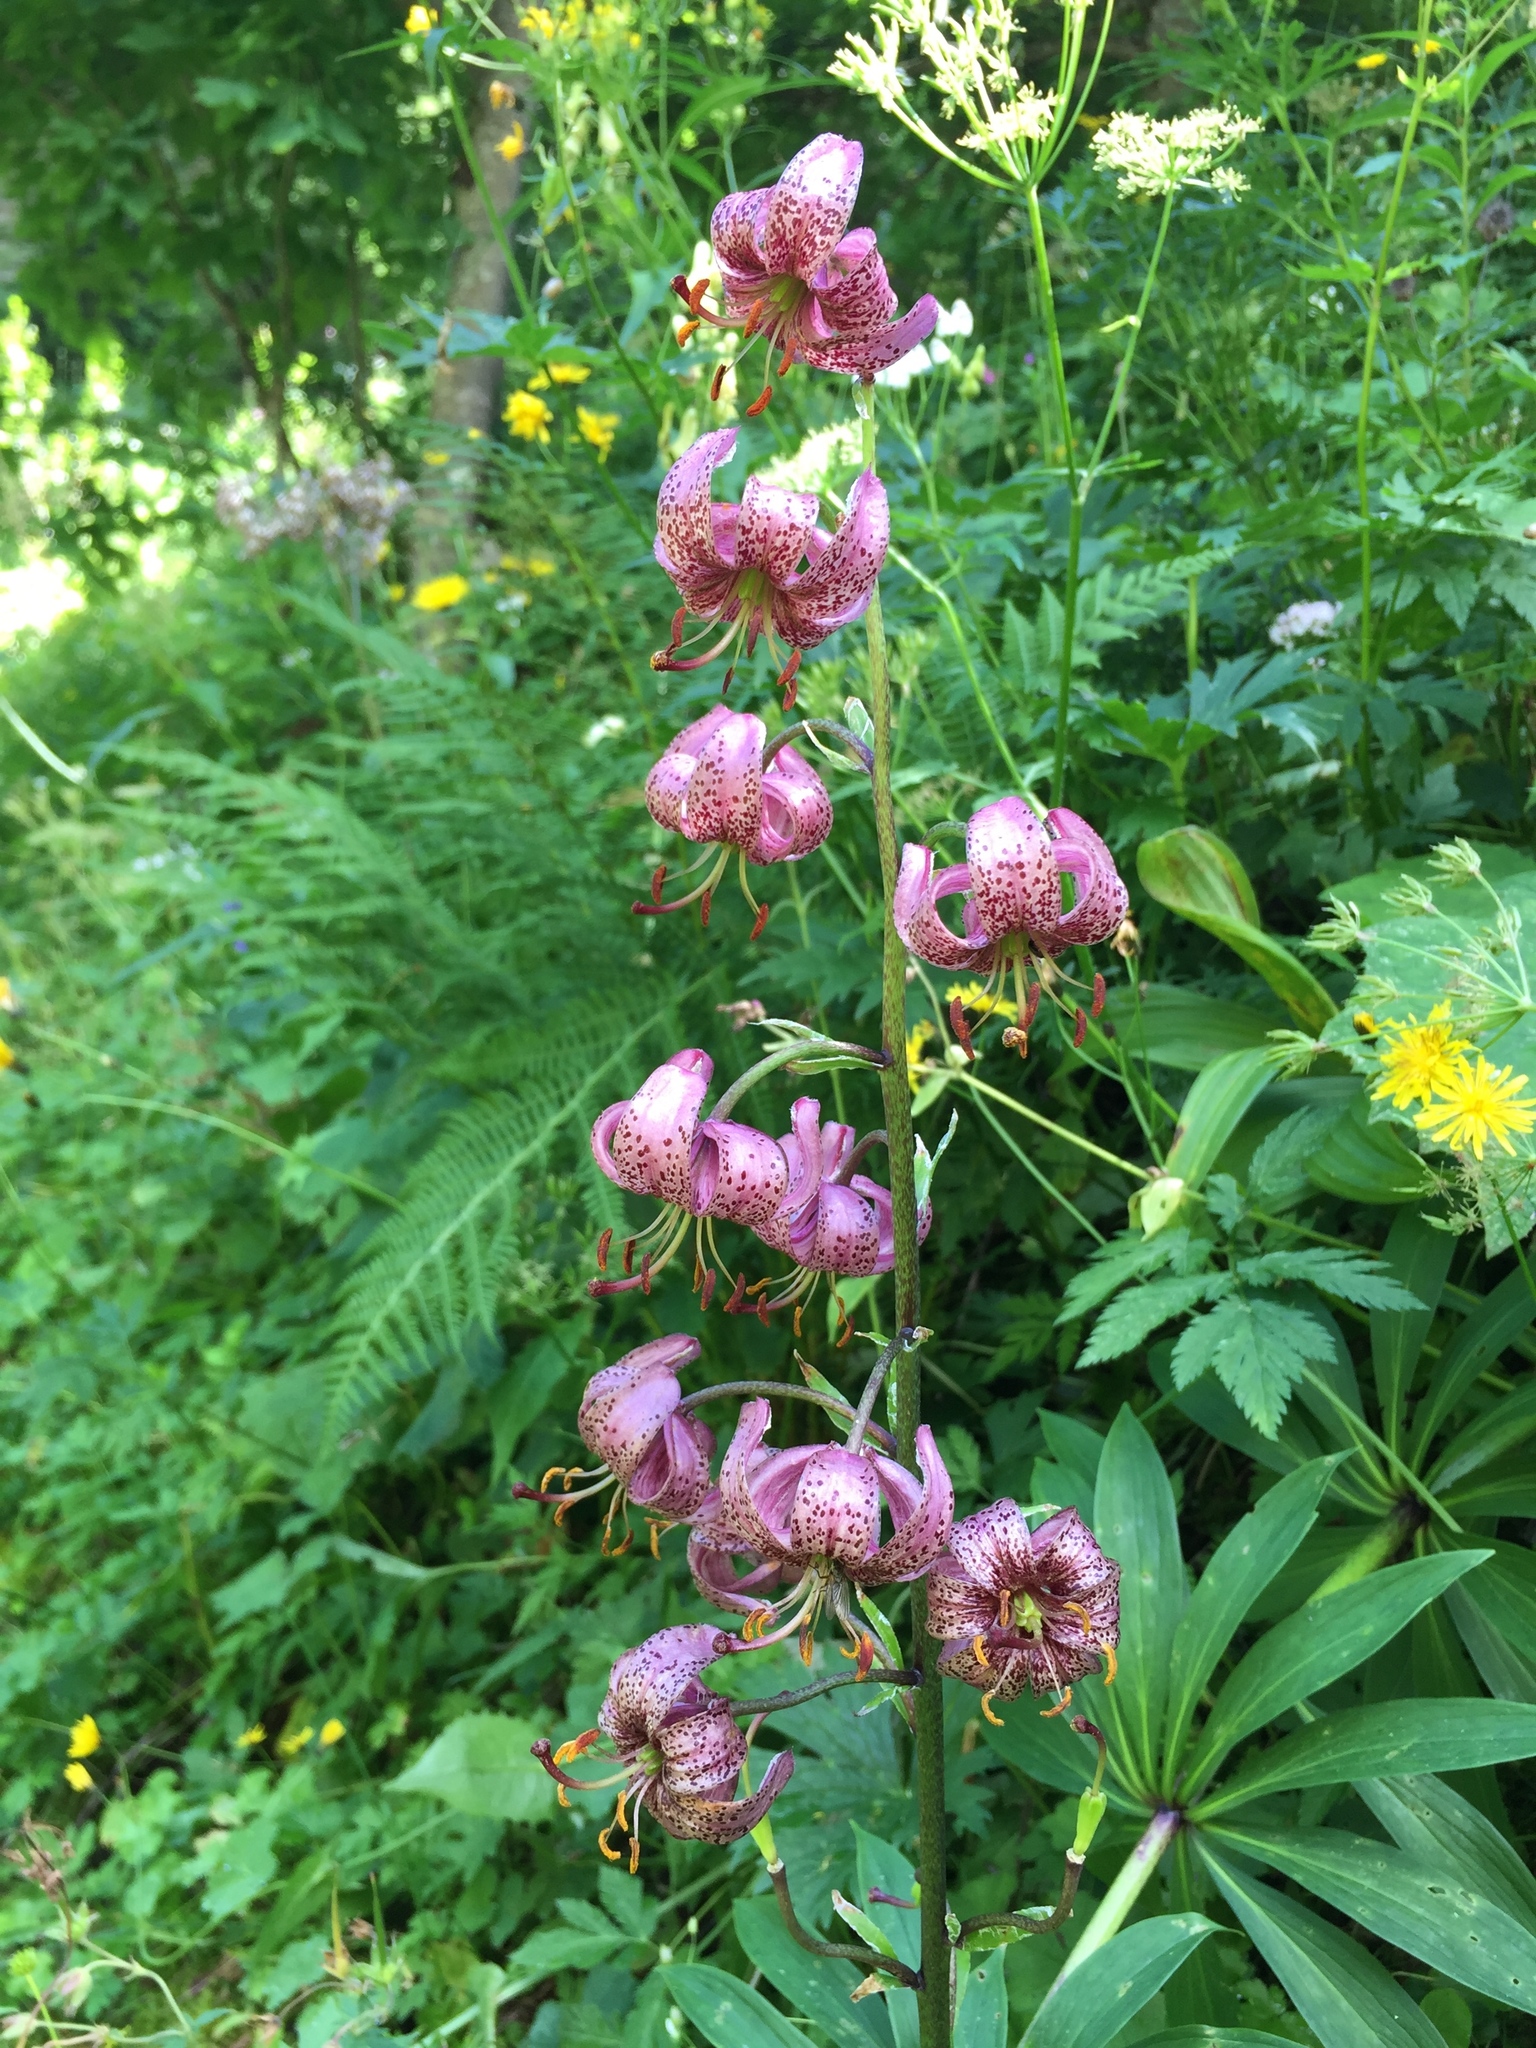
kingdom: Plantae
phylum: Tracheophyta
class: Liliopsida
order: Liliales
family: Liliaceae
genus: Lilium
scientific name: Lilium martagon
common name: Martagon lily
